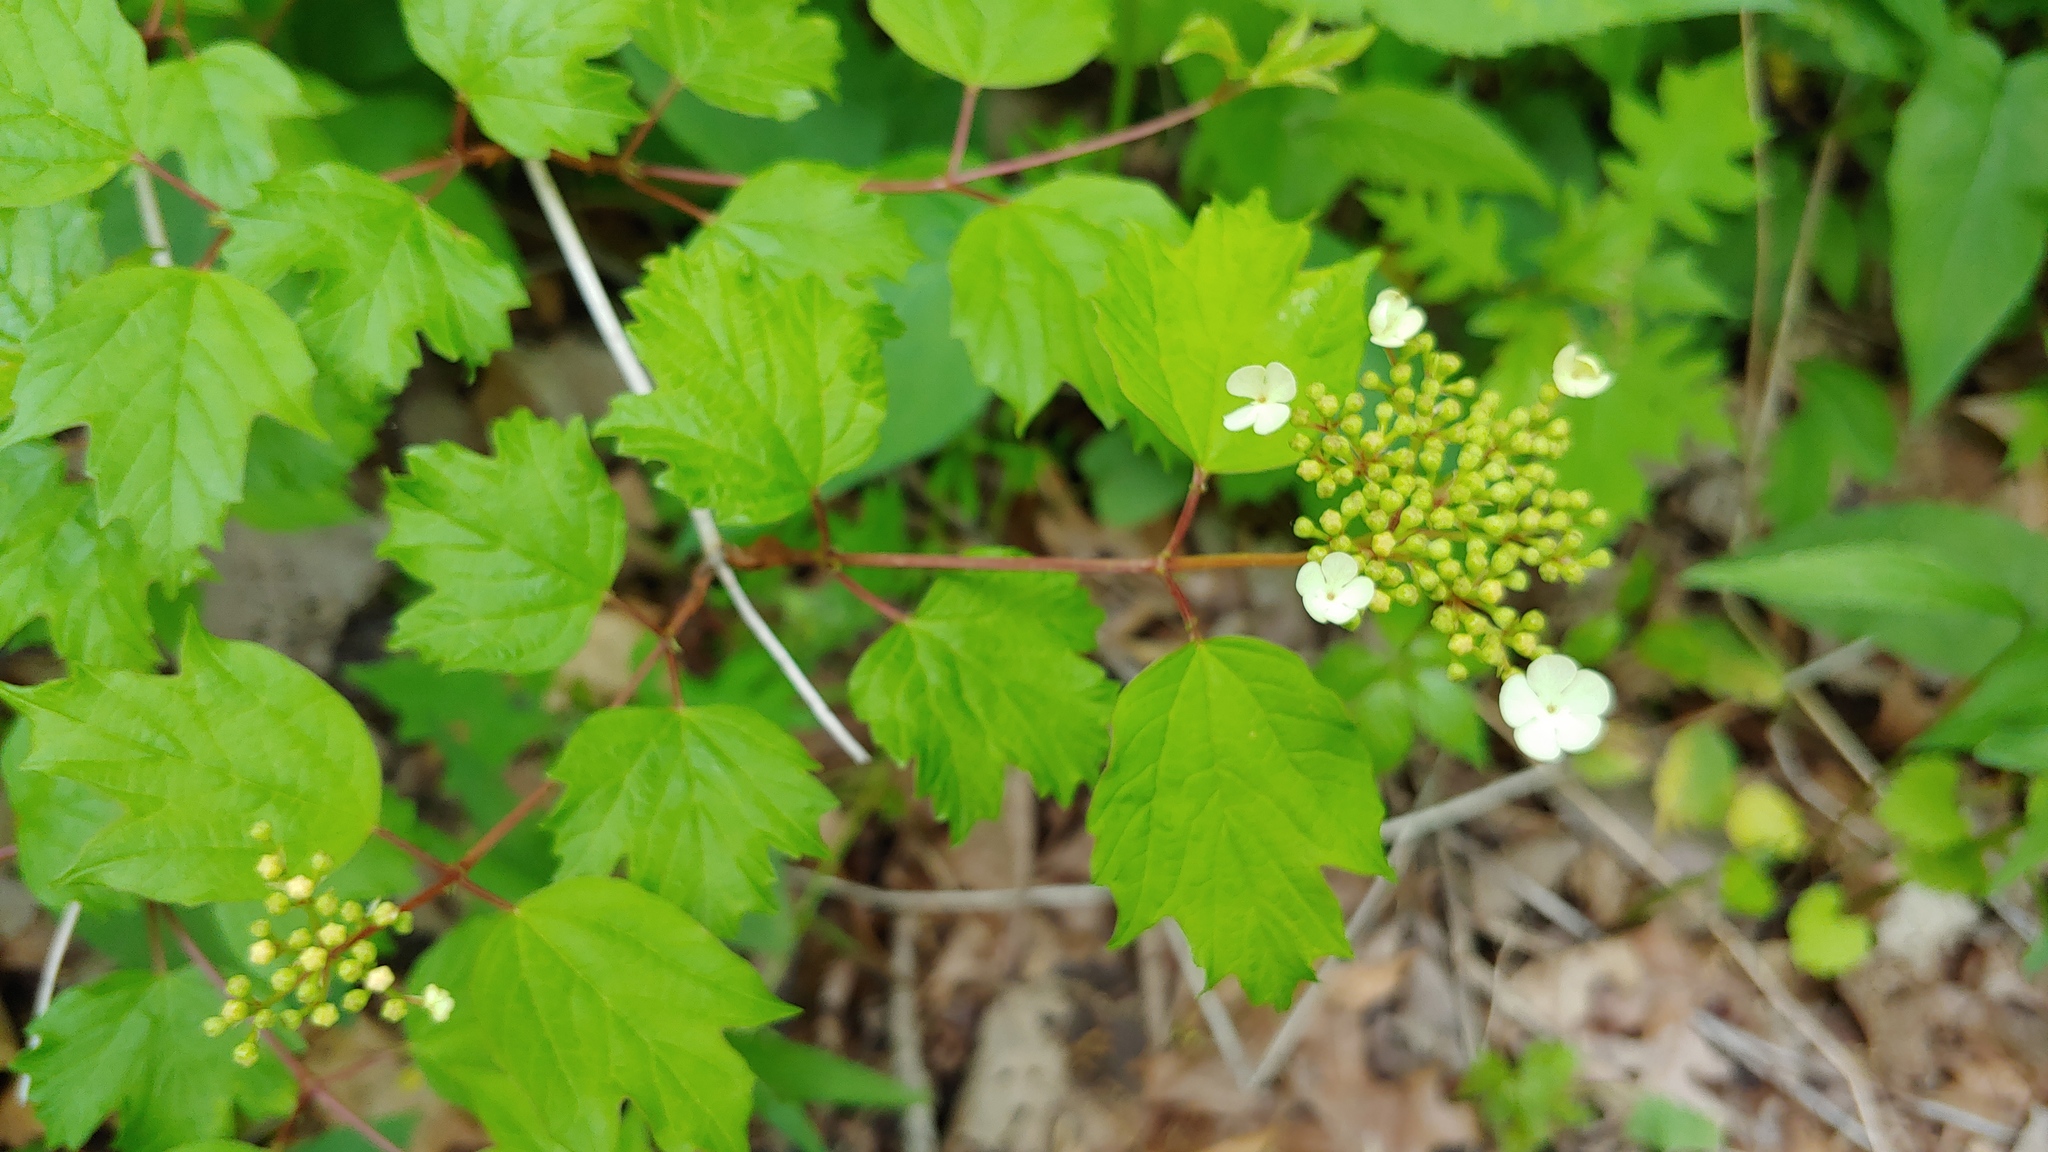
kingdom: Plantae
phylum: Tracheophyta
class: Magnoliopsida
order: Dipsacales
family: Viburnaceae
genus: Viburnum
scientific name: Viburnum opulus
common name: Guelder-rose
